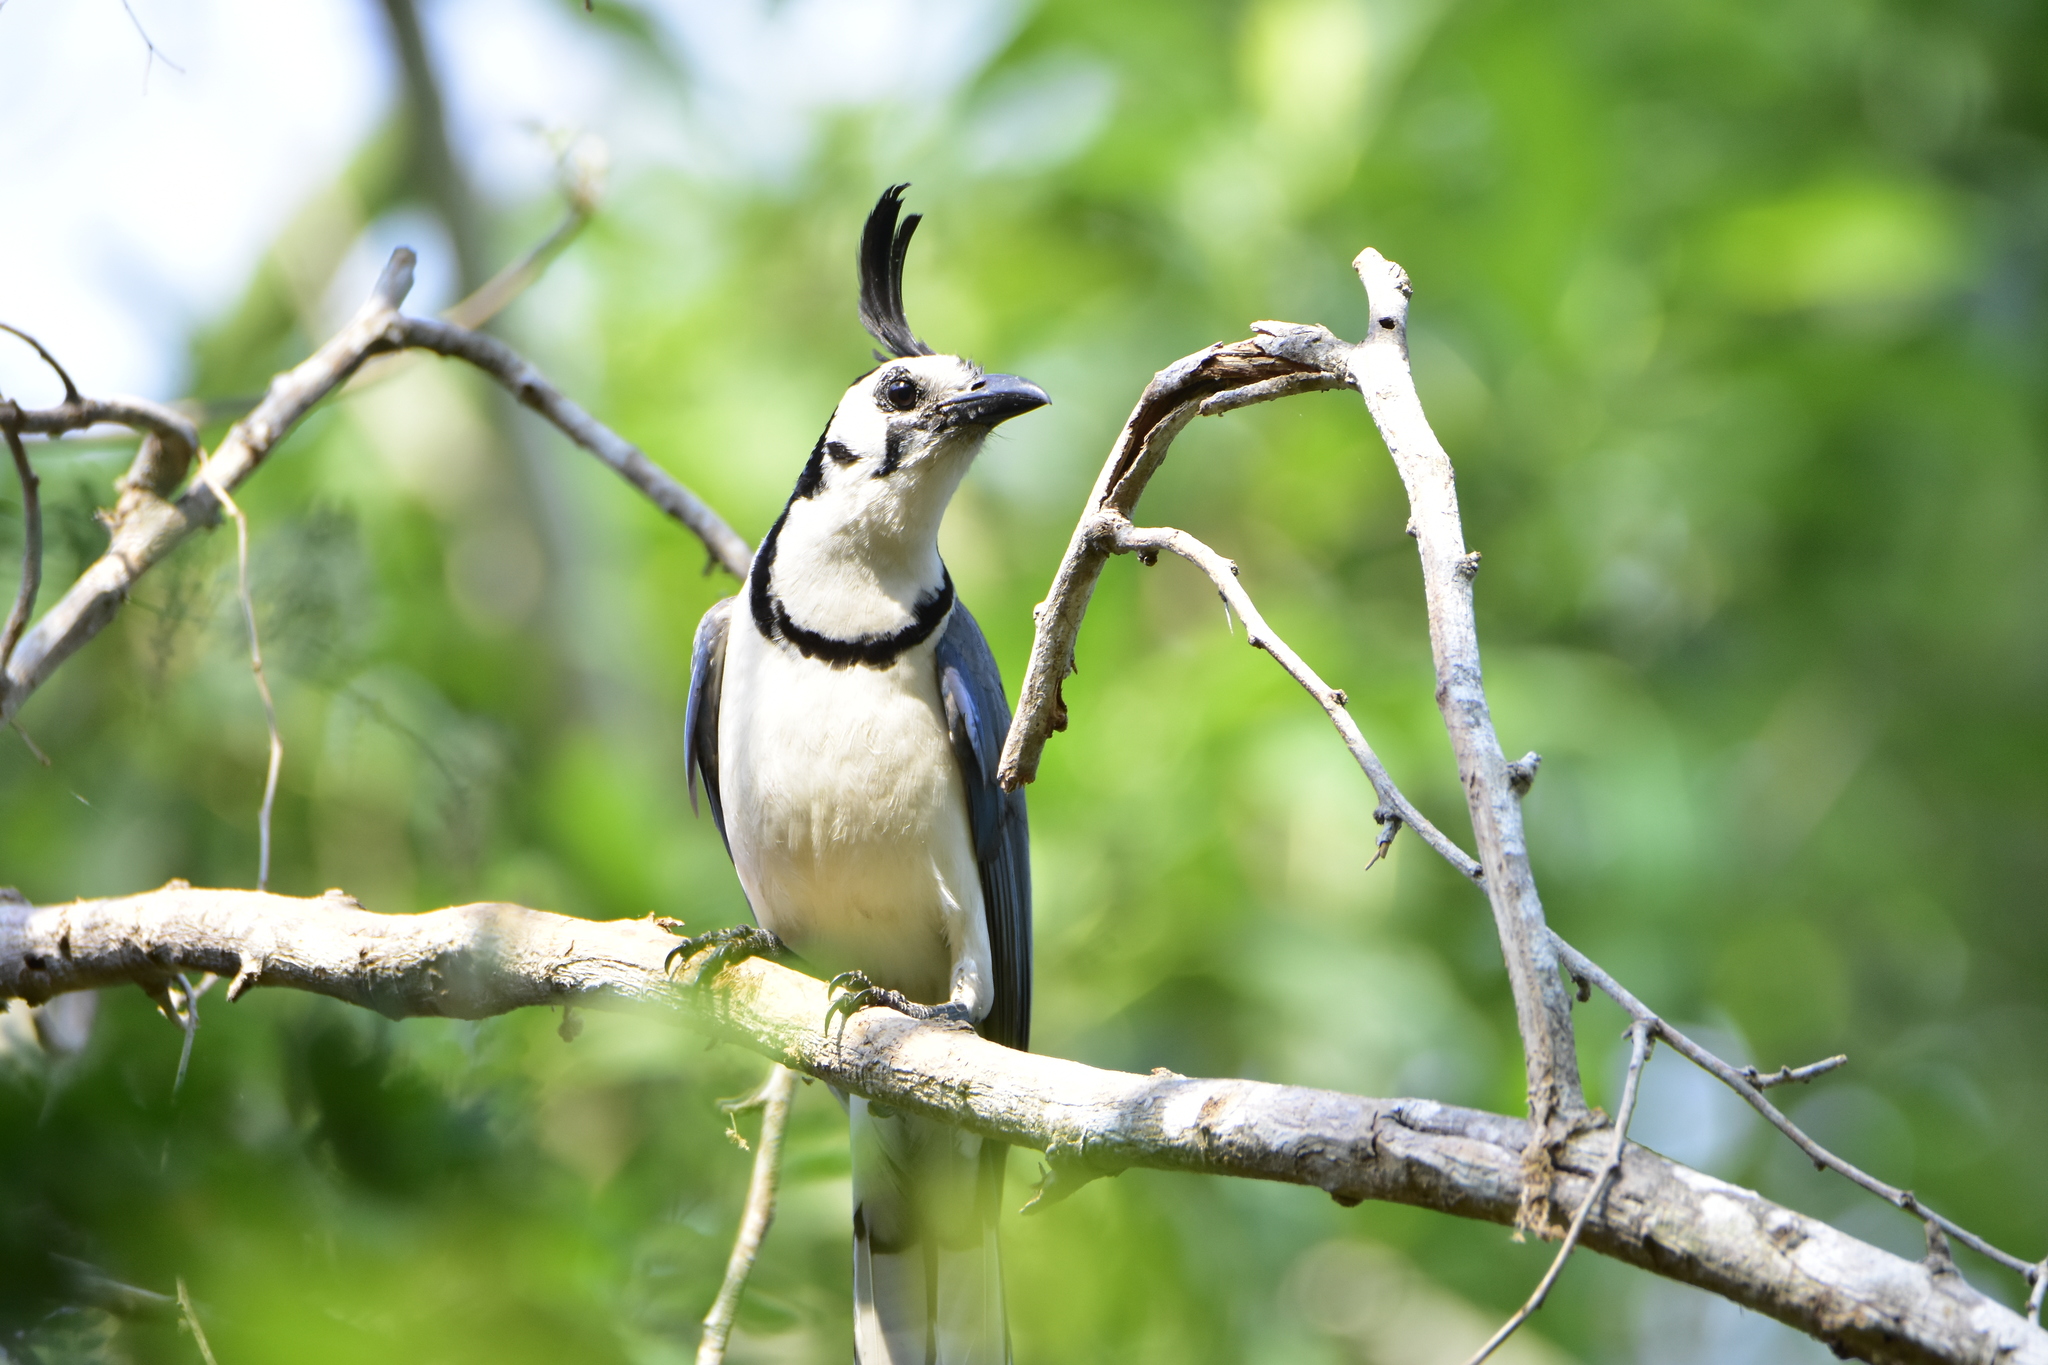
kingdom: Animalia
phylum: Chordata
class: Aves
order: Passeriformes
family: Corvidae
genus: Calocitta
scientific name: Calocitta formosa
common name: White-throated magpie-jay
